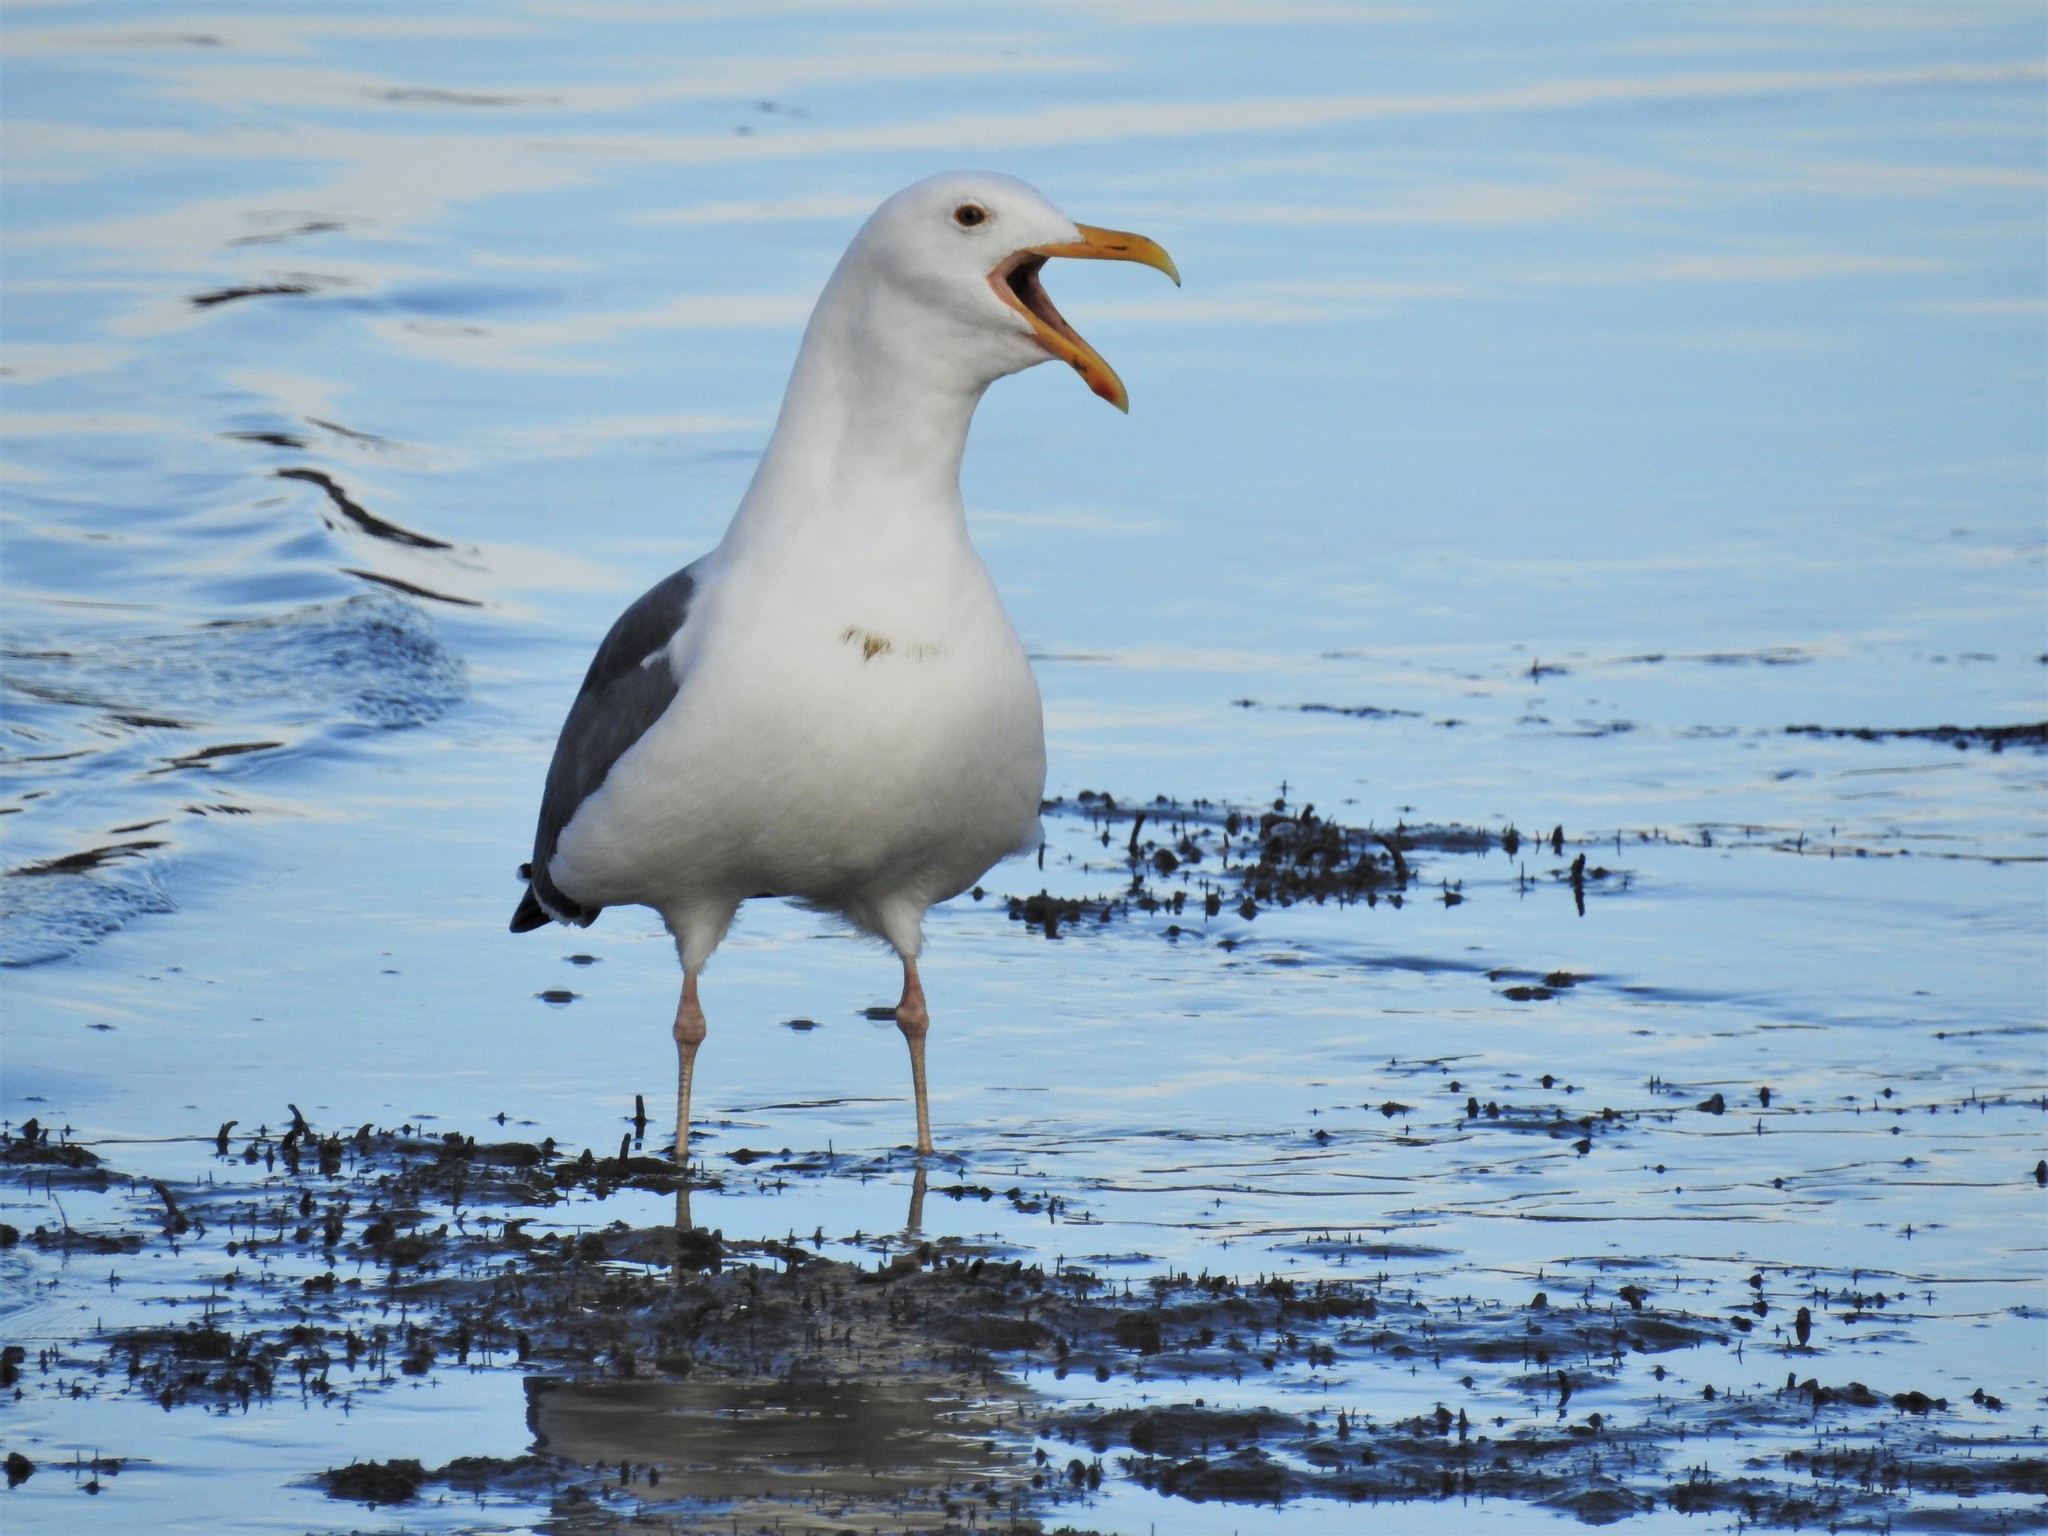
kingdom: Animalia
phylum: Chordata
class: Aves
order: Charadriiformes
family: Laridae
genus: Larus
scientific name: Larus occidentalis
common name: Western gull
